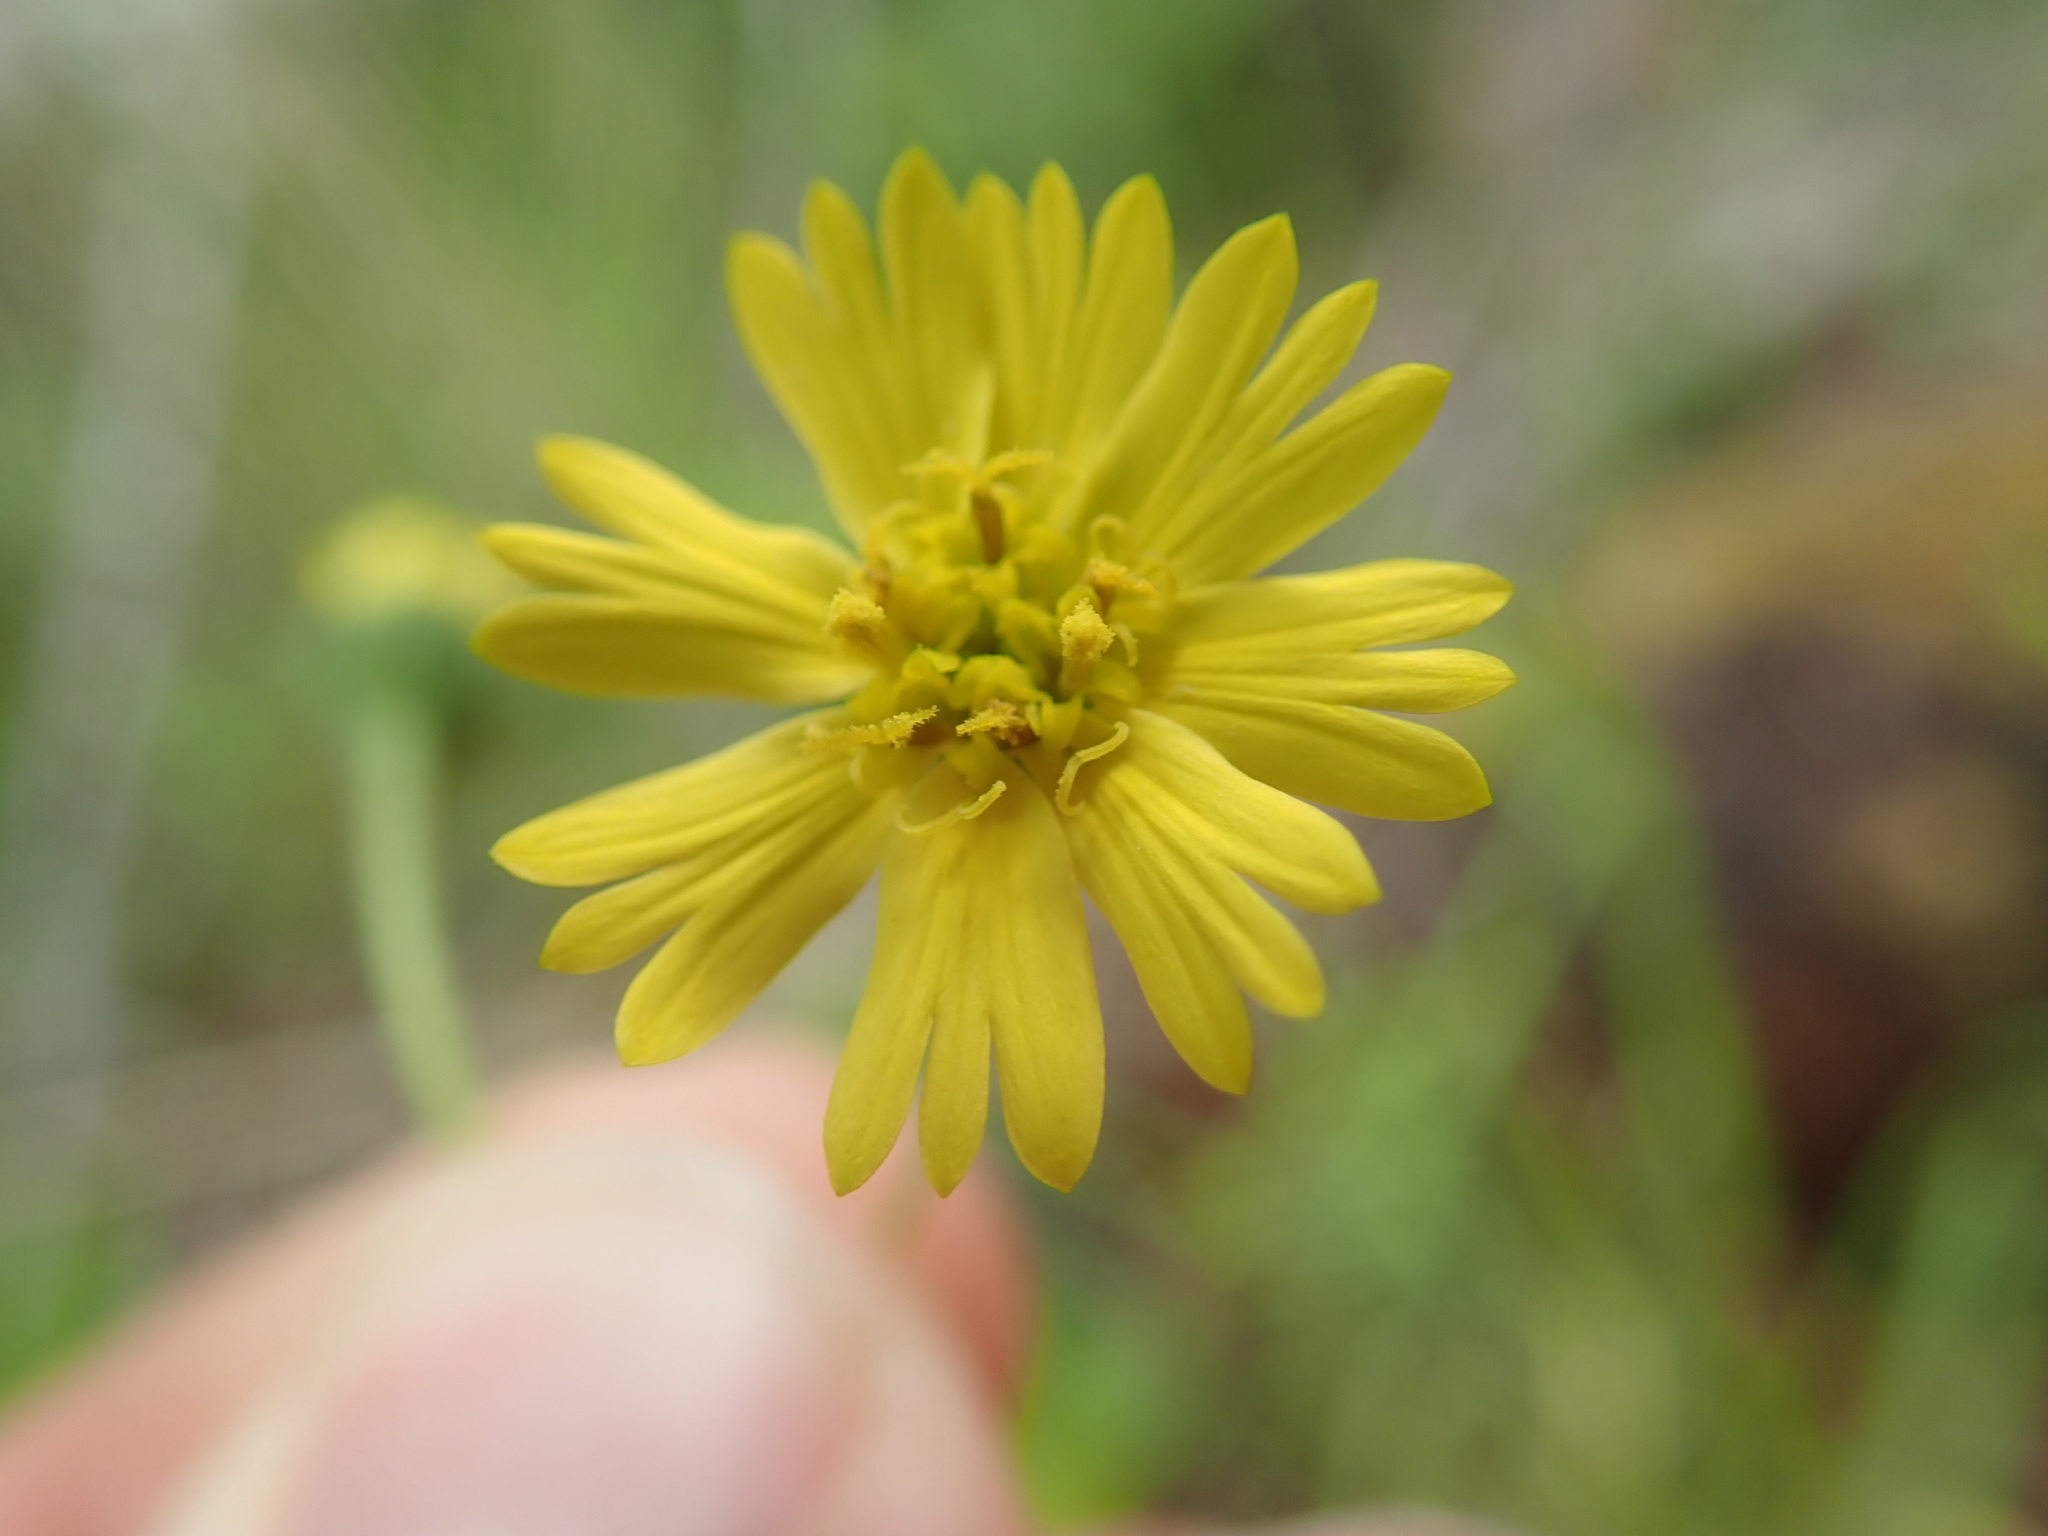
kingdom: Plantae
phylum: Tracheophyta
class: Magnoliopsida
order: Asterales
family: Asteraceae
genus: Anisocarpus
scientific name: Anisocarpus madioides
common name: Woodland madia
